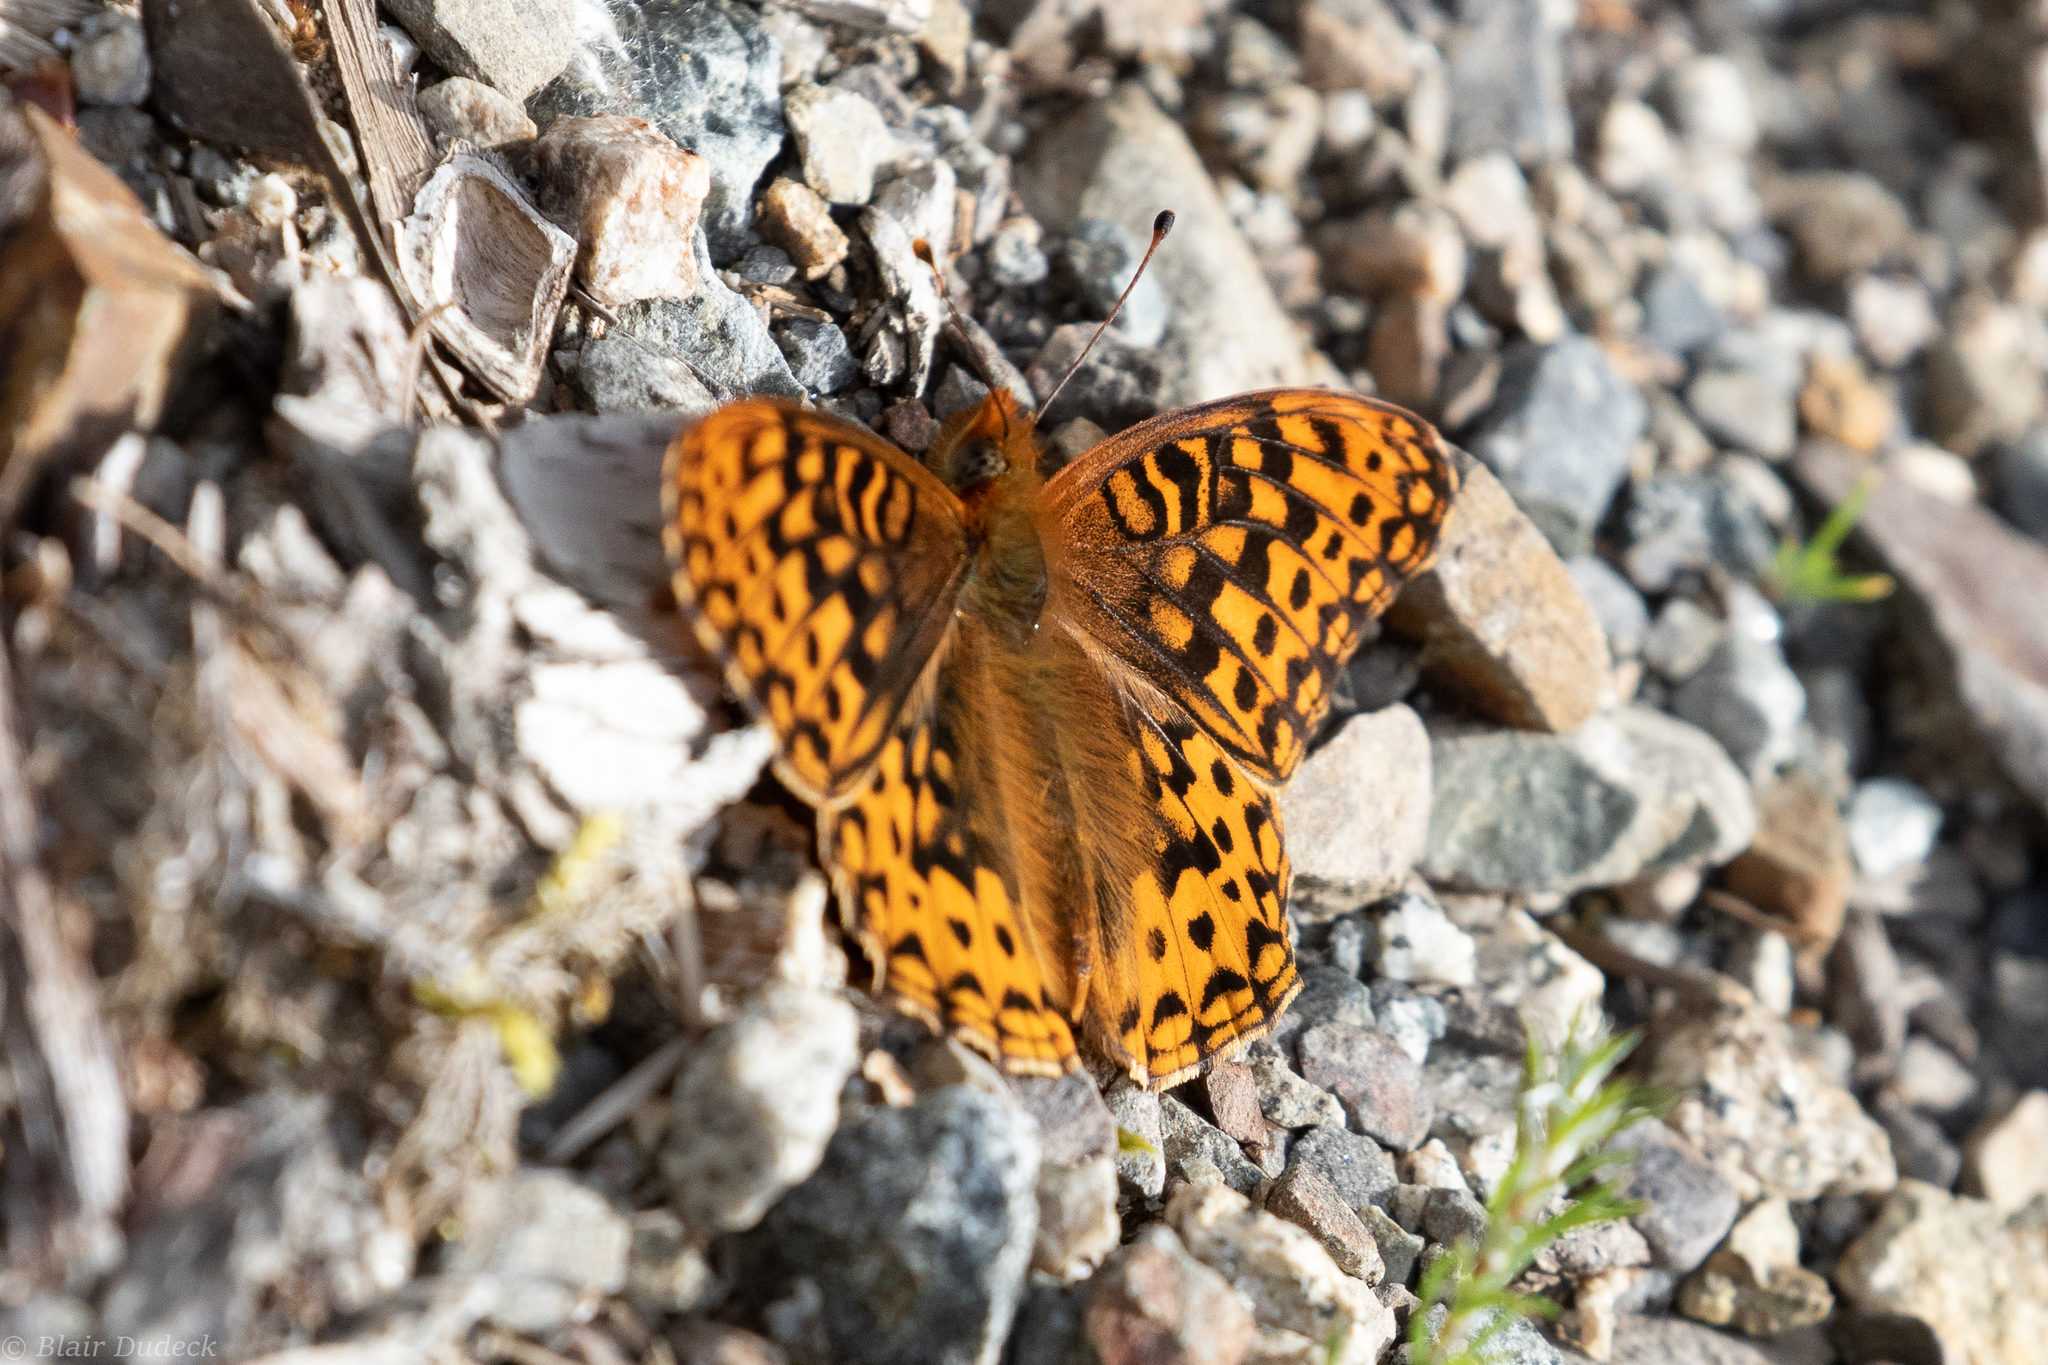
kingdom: Animalia
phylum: Arthropoda
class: Insecta
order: Lepidoptera
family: Nymphalidae
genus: Speyeria
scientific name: Speyeria hydaspe
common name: Hydaspe fritillary
